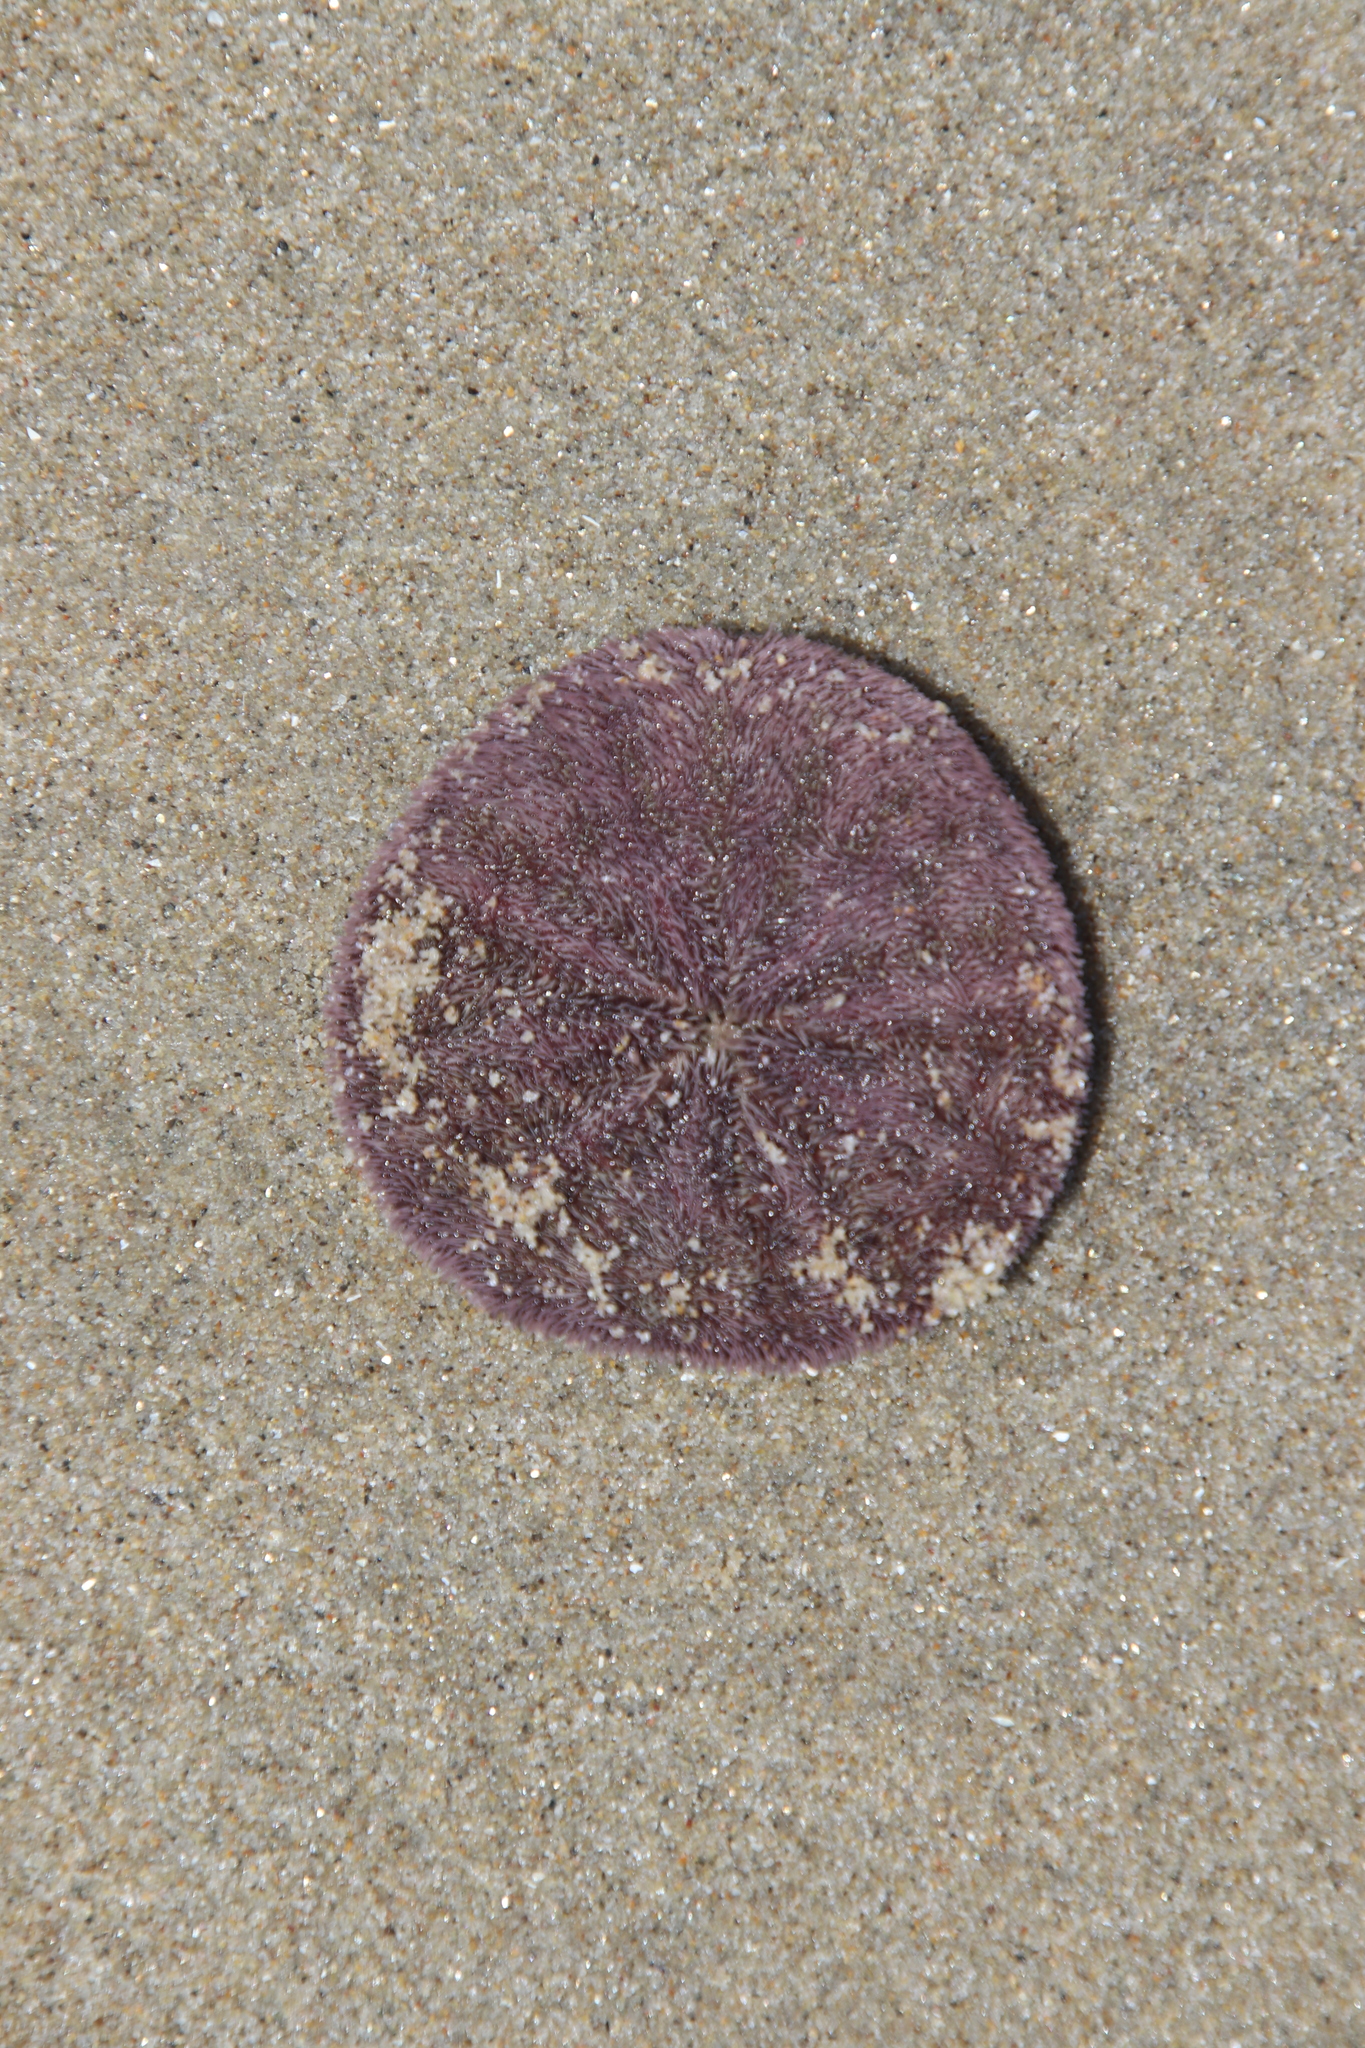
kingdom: Animalia
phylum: Echinodermata
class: Echinoidea
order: Echinolampadacea
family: Dendrasteridae
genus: Dendraster
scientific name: Dendraster excentricus
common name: Eccentric sand dollar sea urchin
